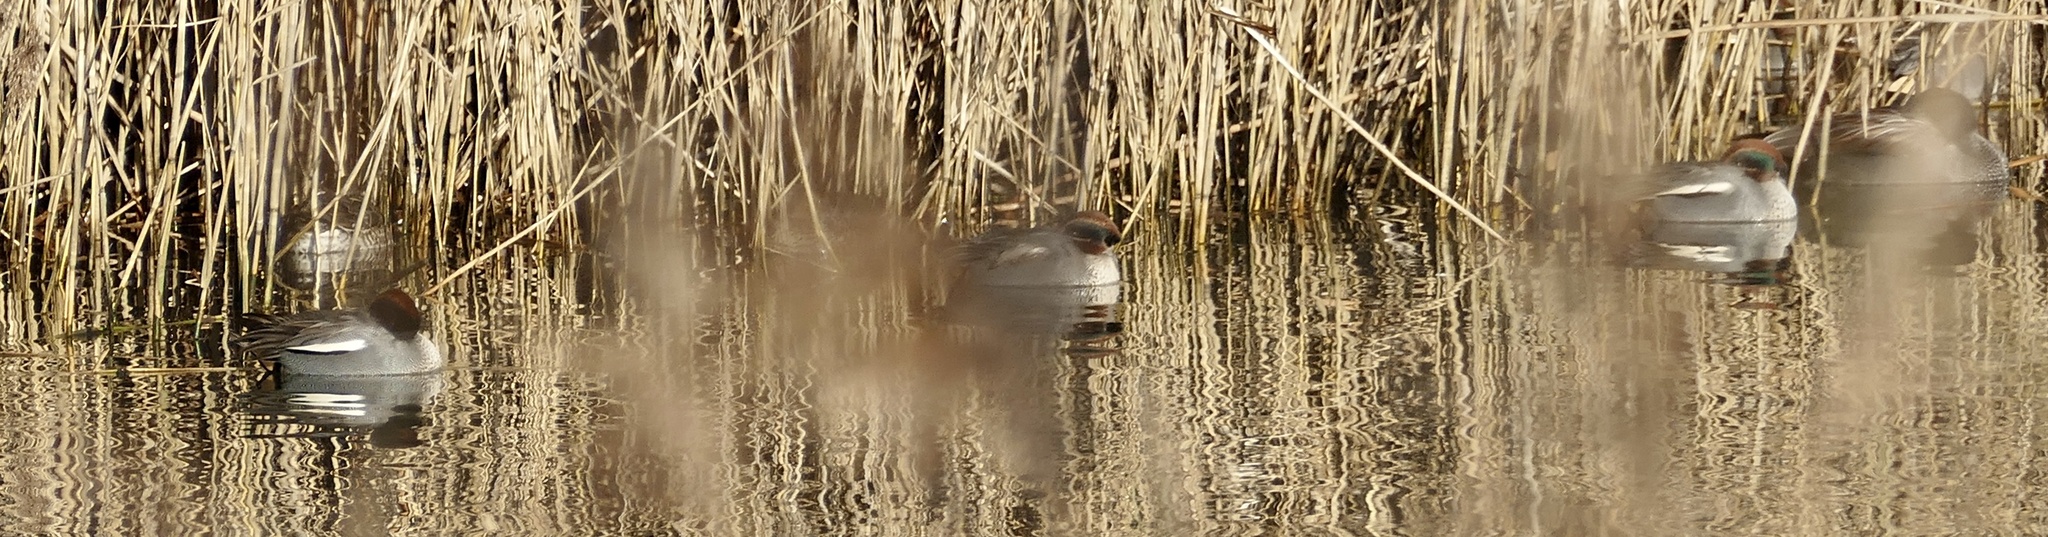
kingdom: Animalia
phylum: Chordata
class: Aves
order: Anseriformes
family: Anatidae
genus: Anas
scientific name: Anas crecca
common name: Eurasian teal
